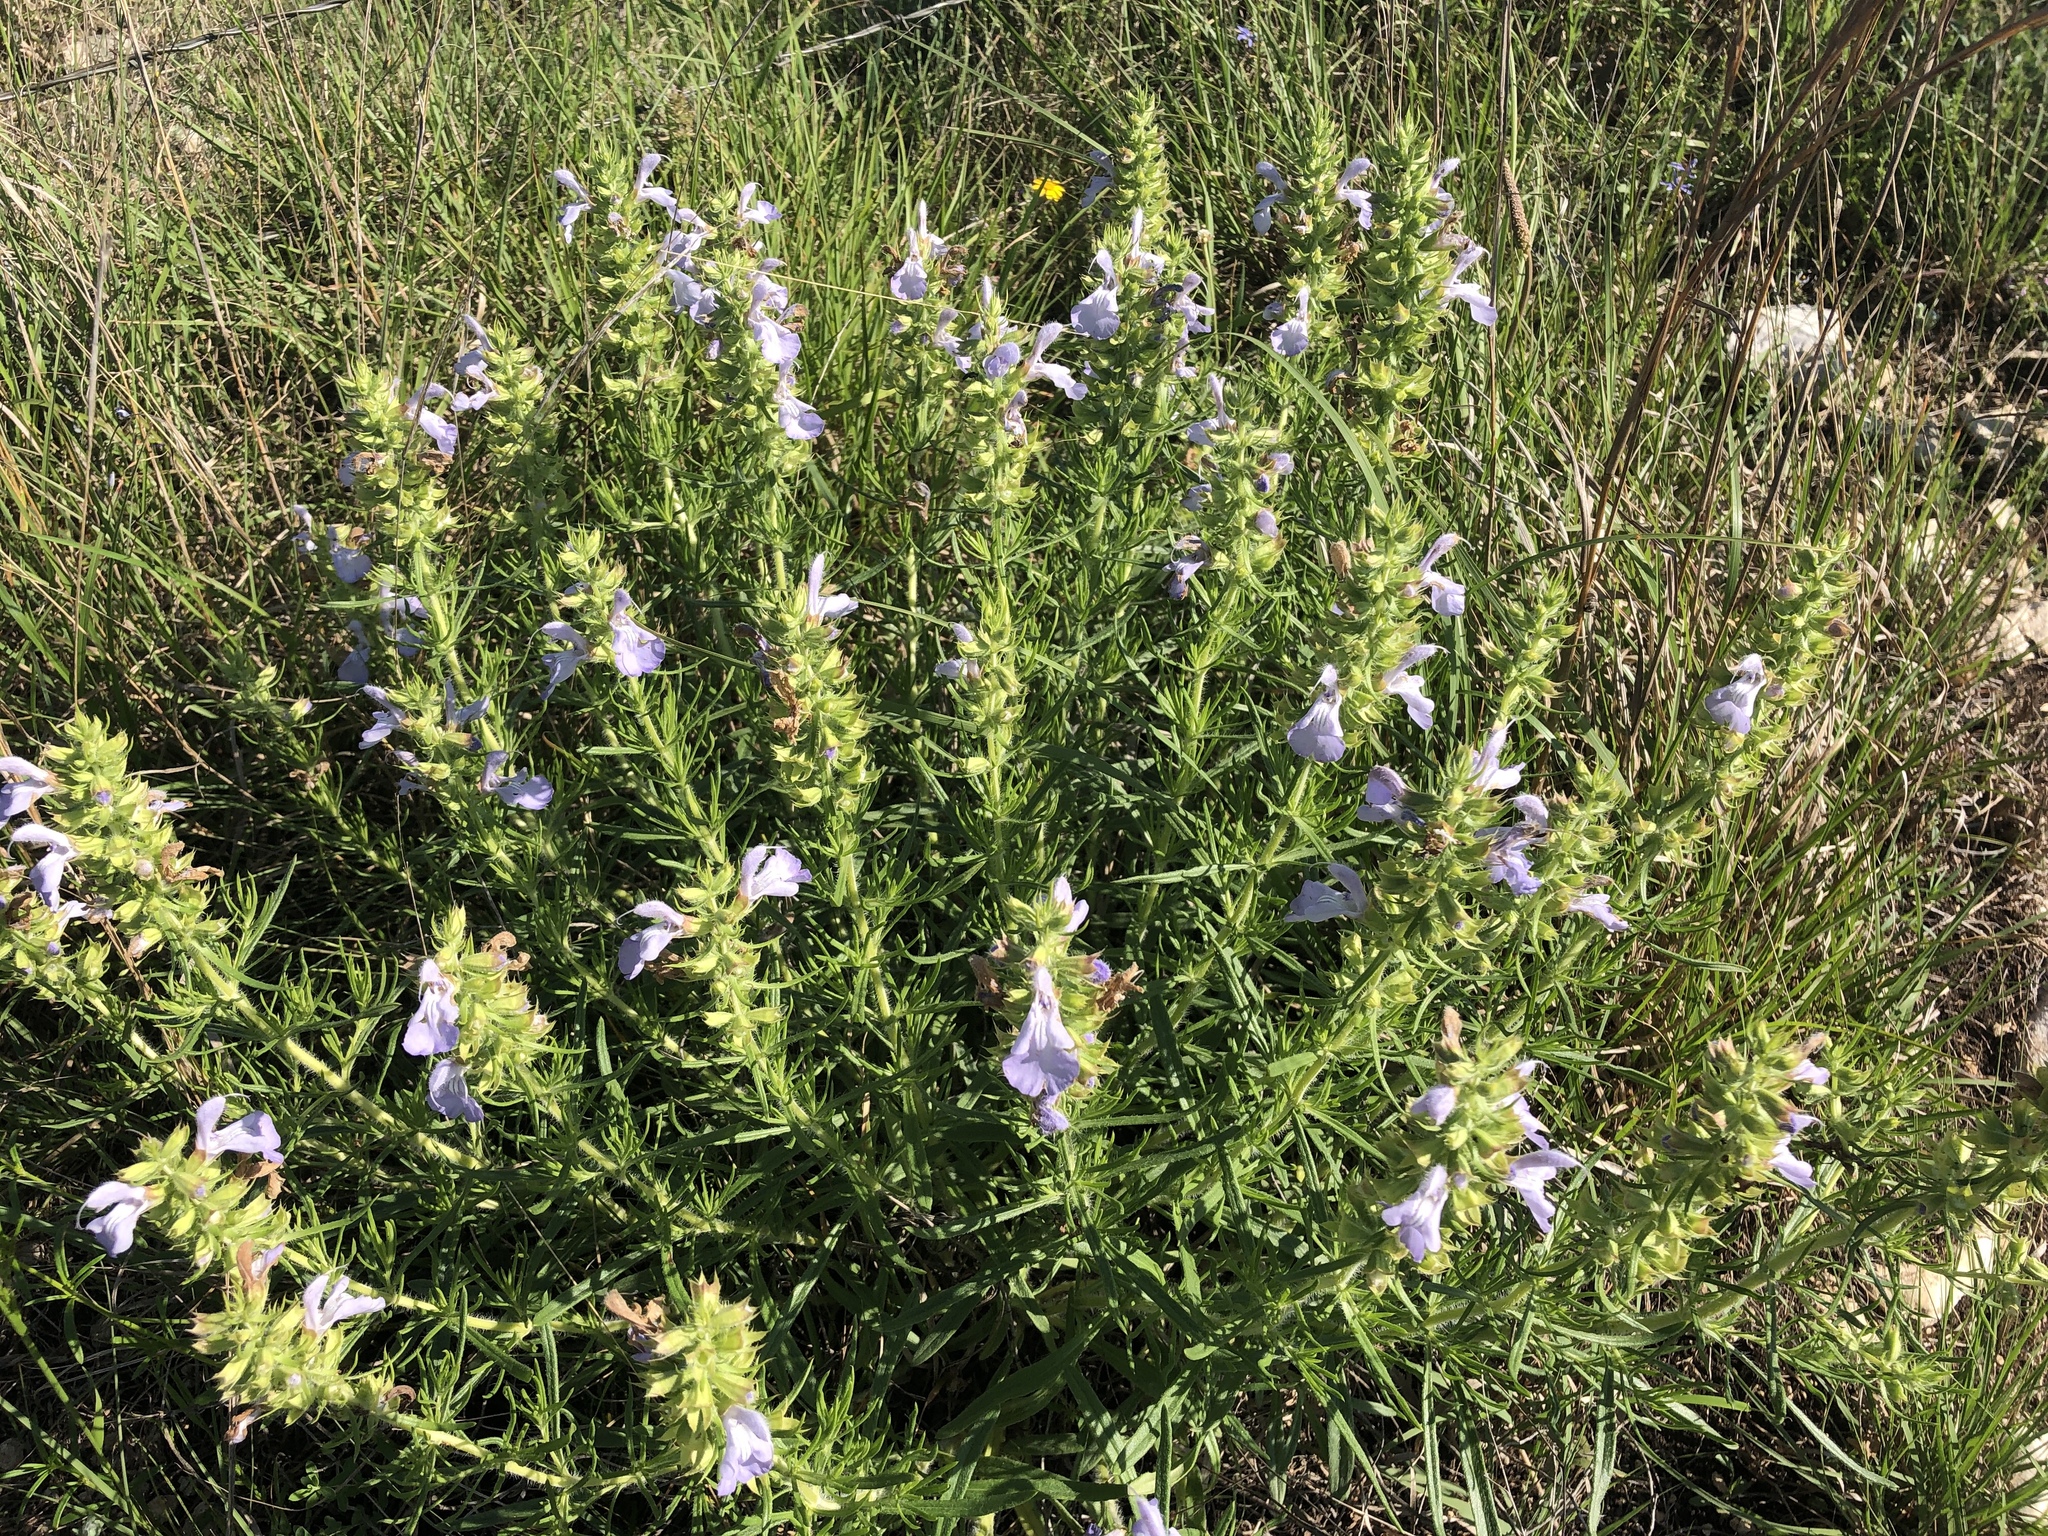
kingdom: Plantae
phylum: Tracheophyta
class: Magnoliopsida
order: Lamiales
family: Lamiaceae
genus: Salvia
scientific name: Salvia engelmannii
